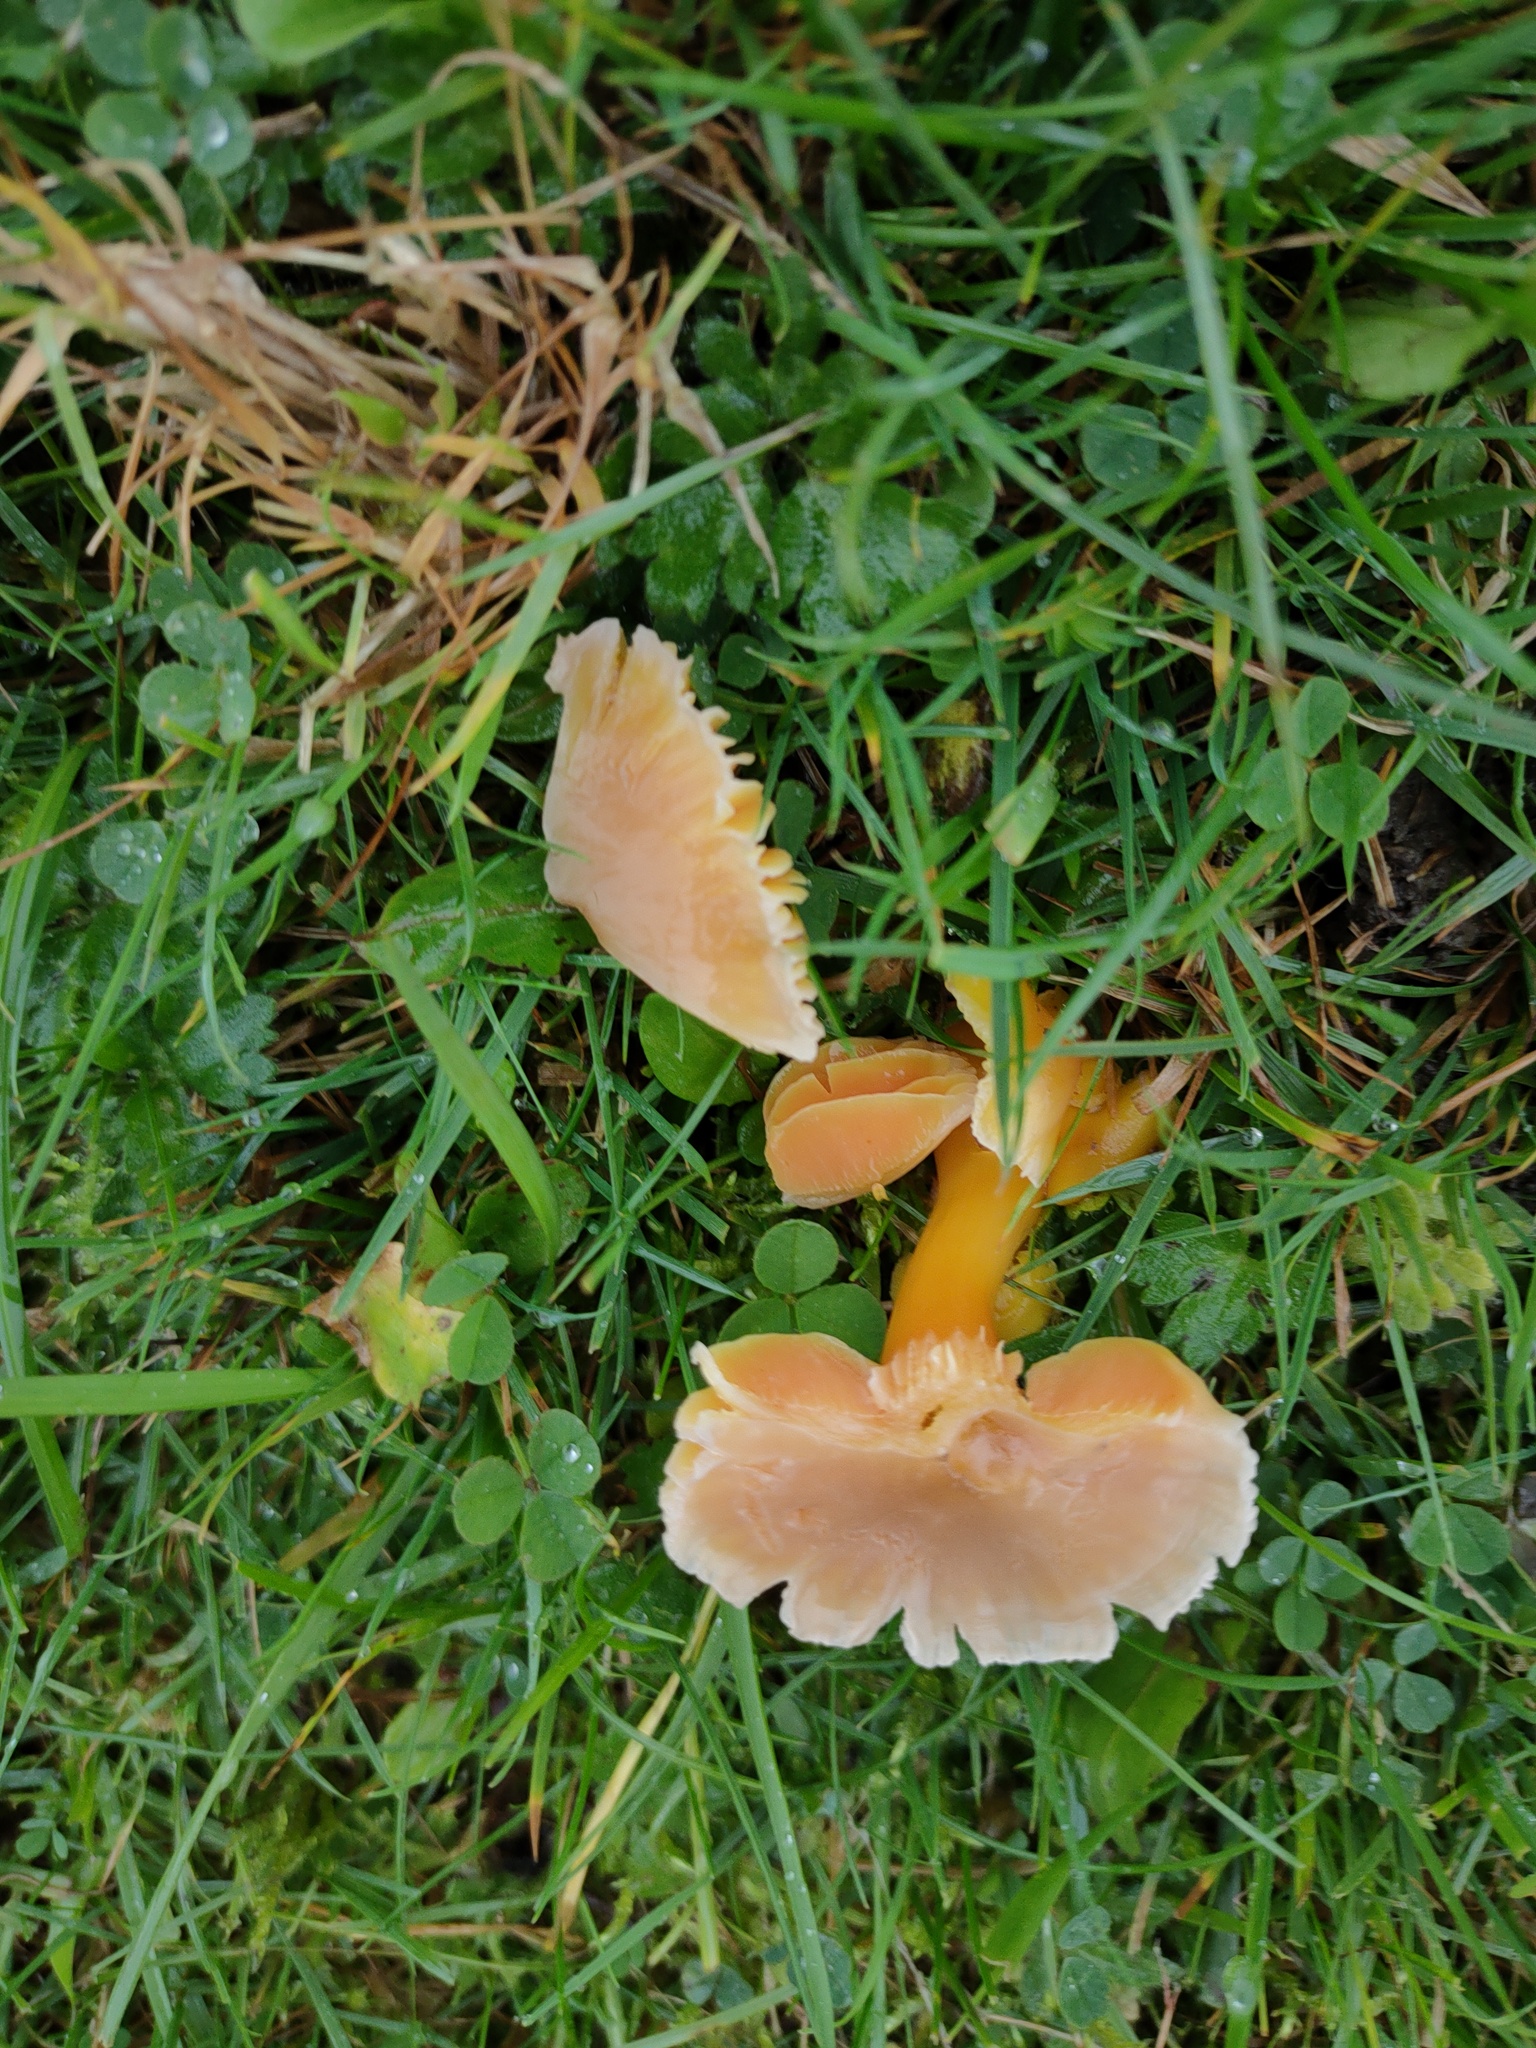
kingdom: Fungi
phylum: Basidiomycota
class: Agaricomycetes
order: Agaricales
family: Hygrophoraceae
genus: Hygrocybe
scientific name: Hygrocybe quieta
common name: Oily waxcap
